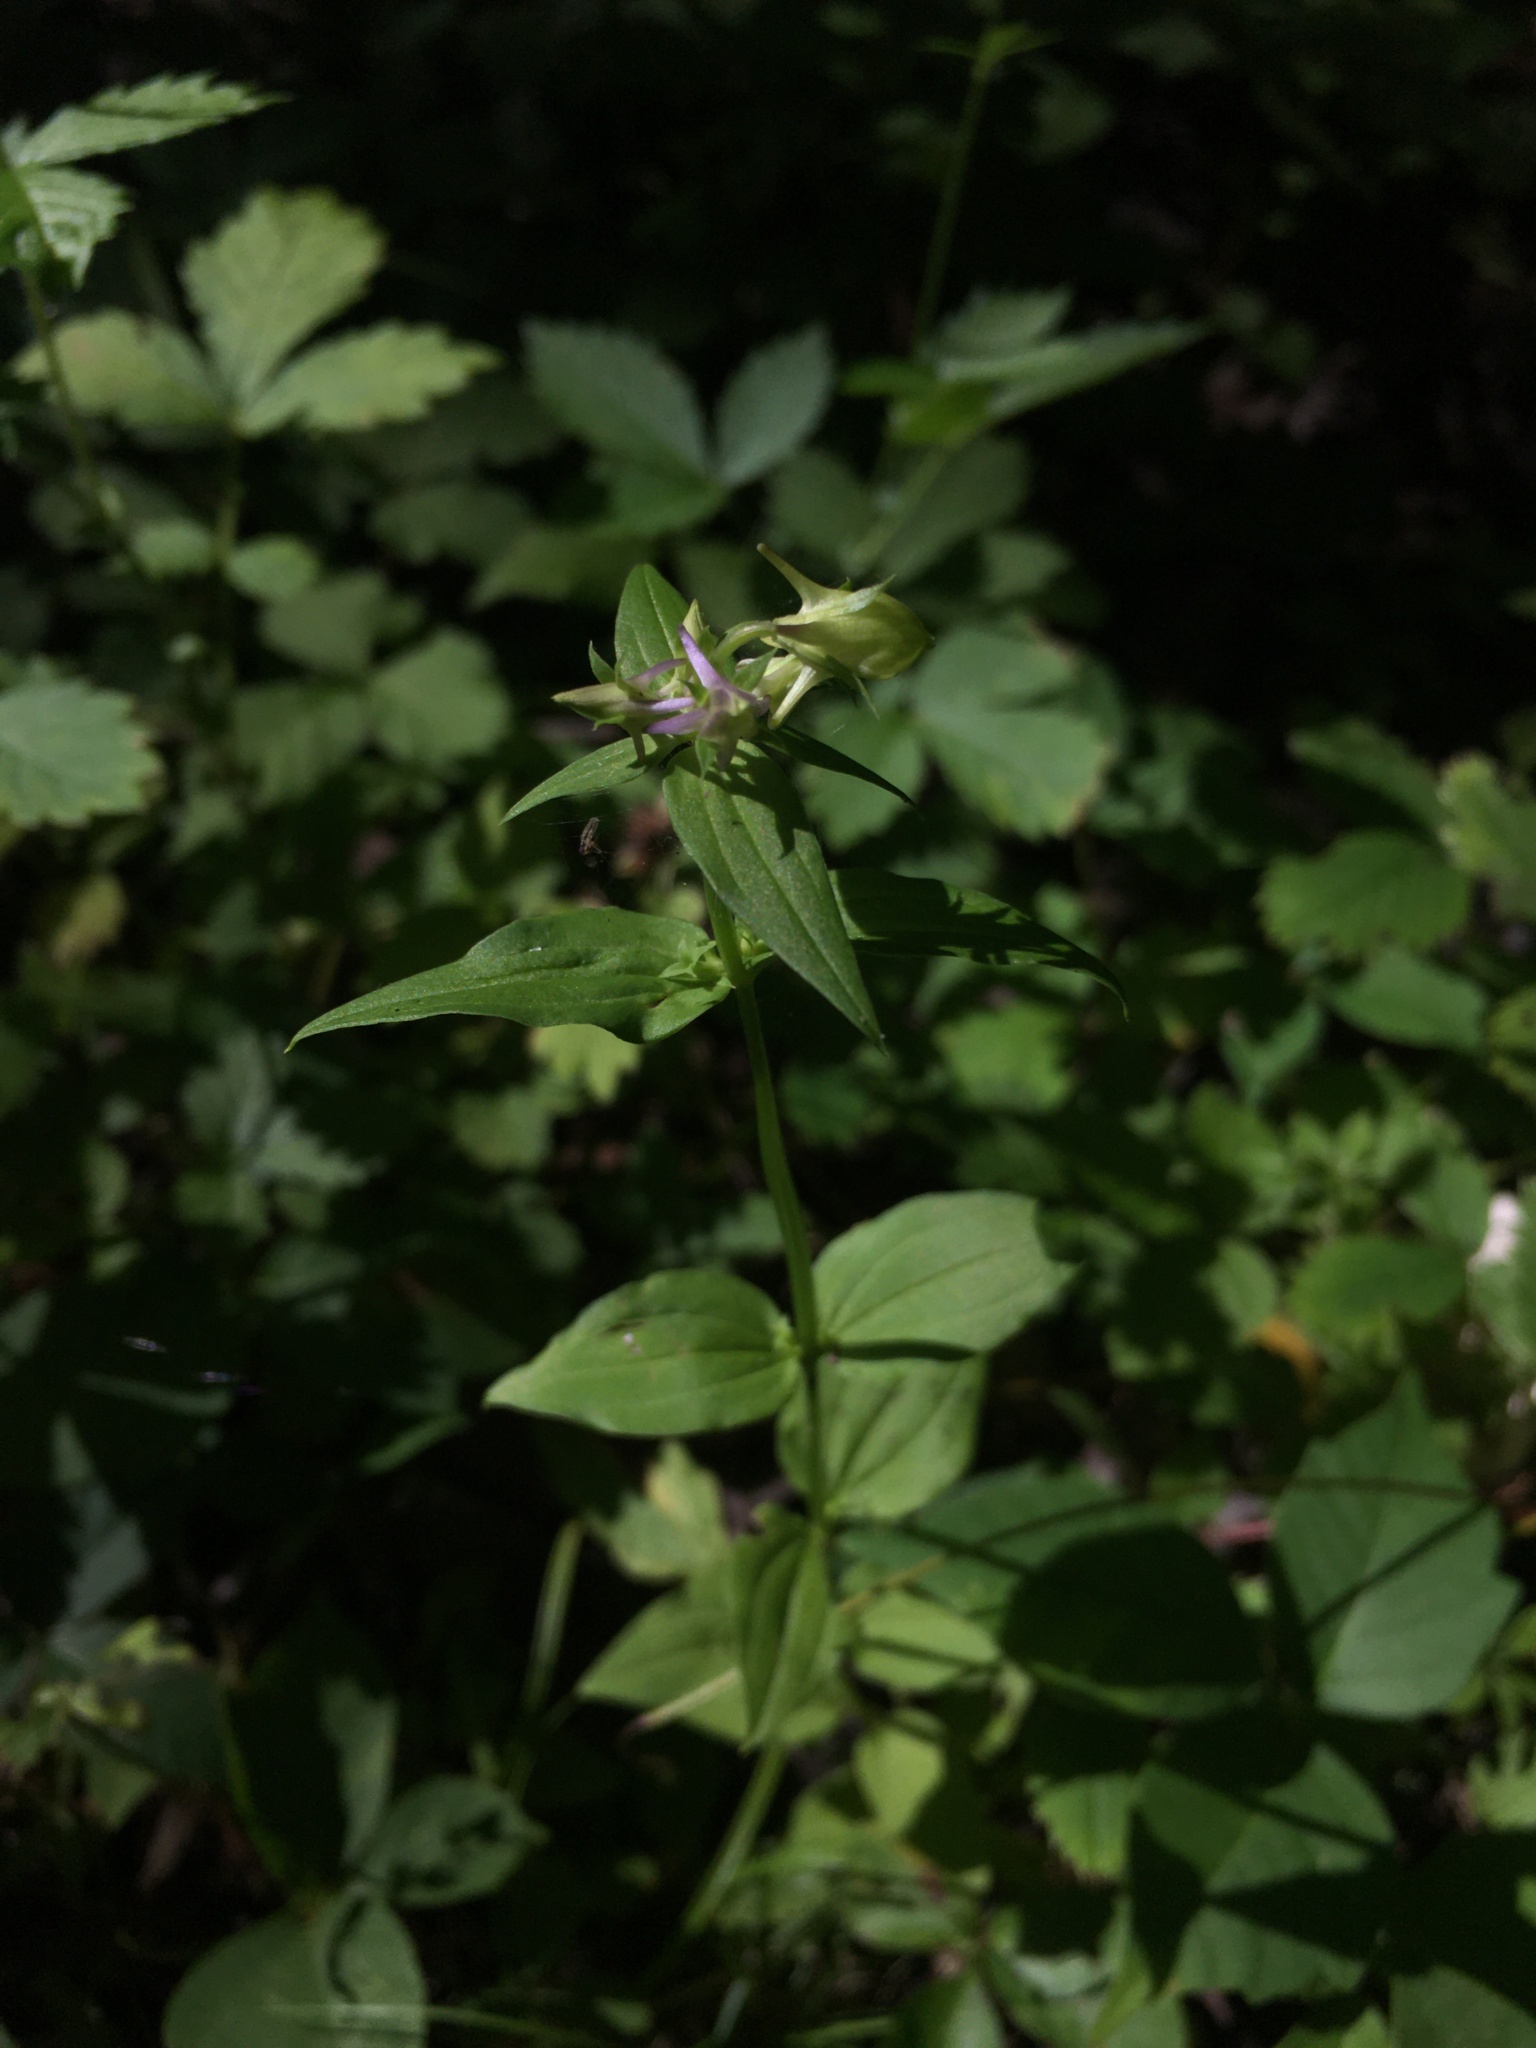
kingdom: Plantae
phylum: Tracheophyta
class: Magnoliopsida
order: Gentianales
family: Gentianaceae
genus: Halenia
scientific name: Halenia deflexa
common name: American spurred gentian
